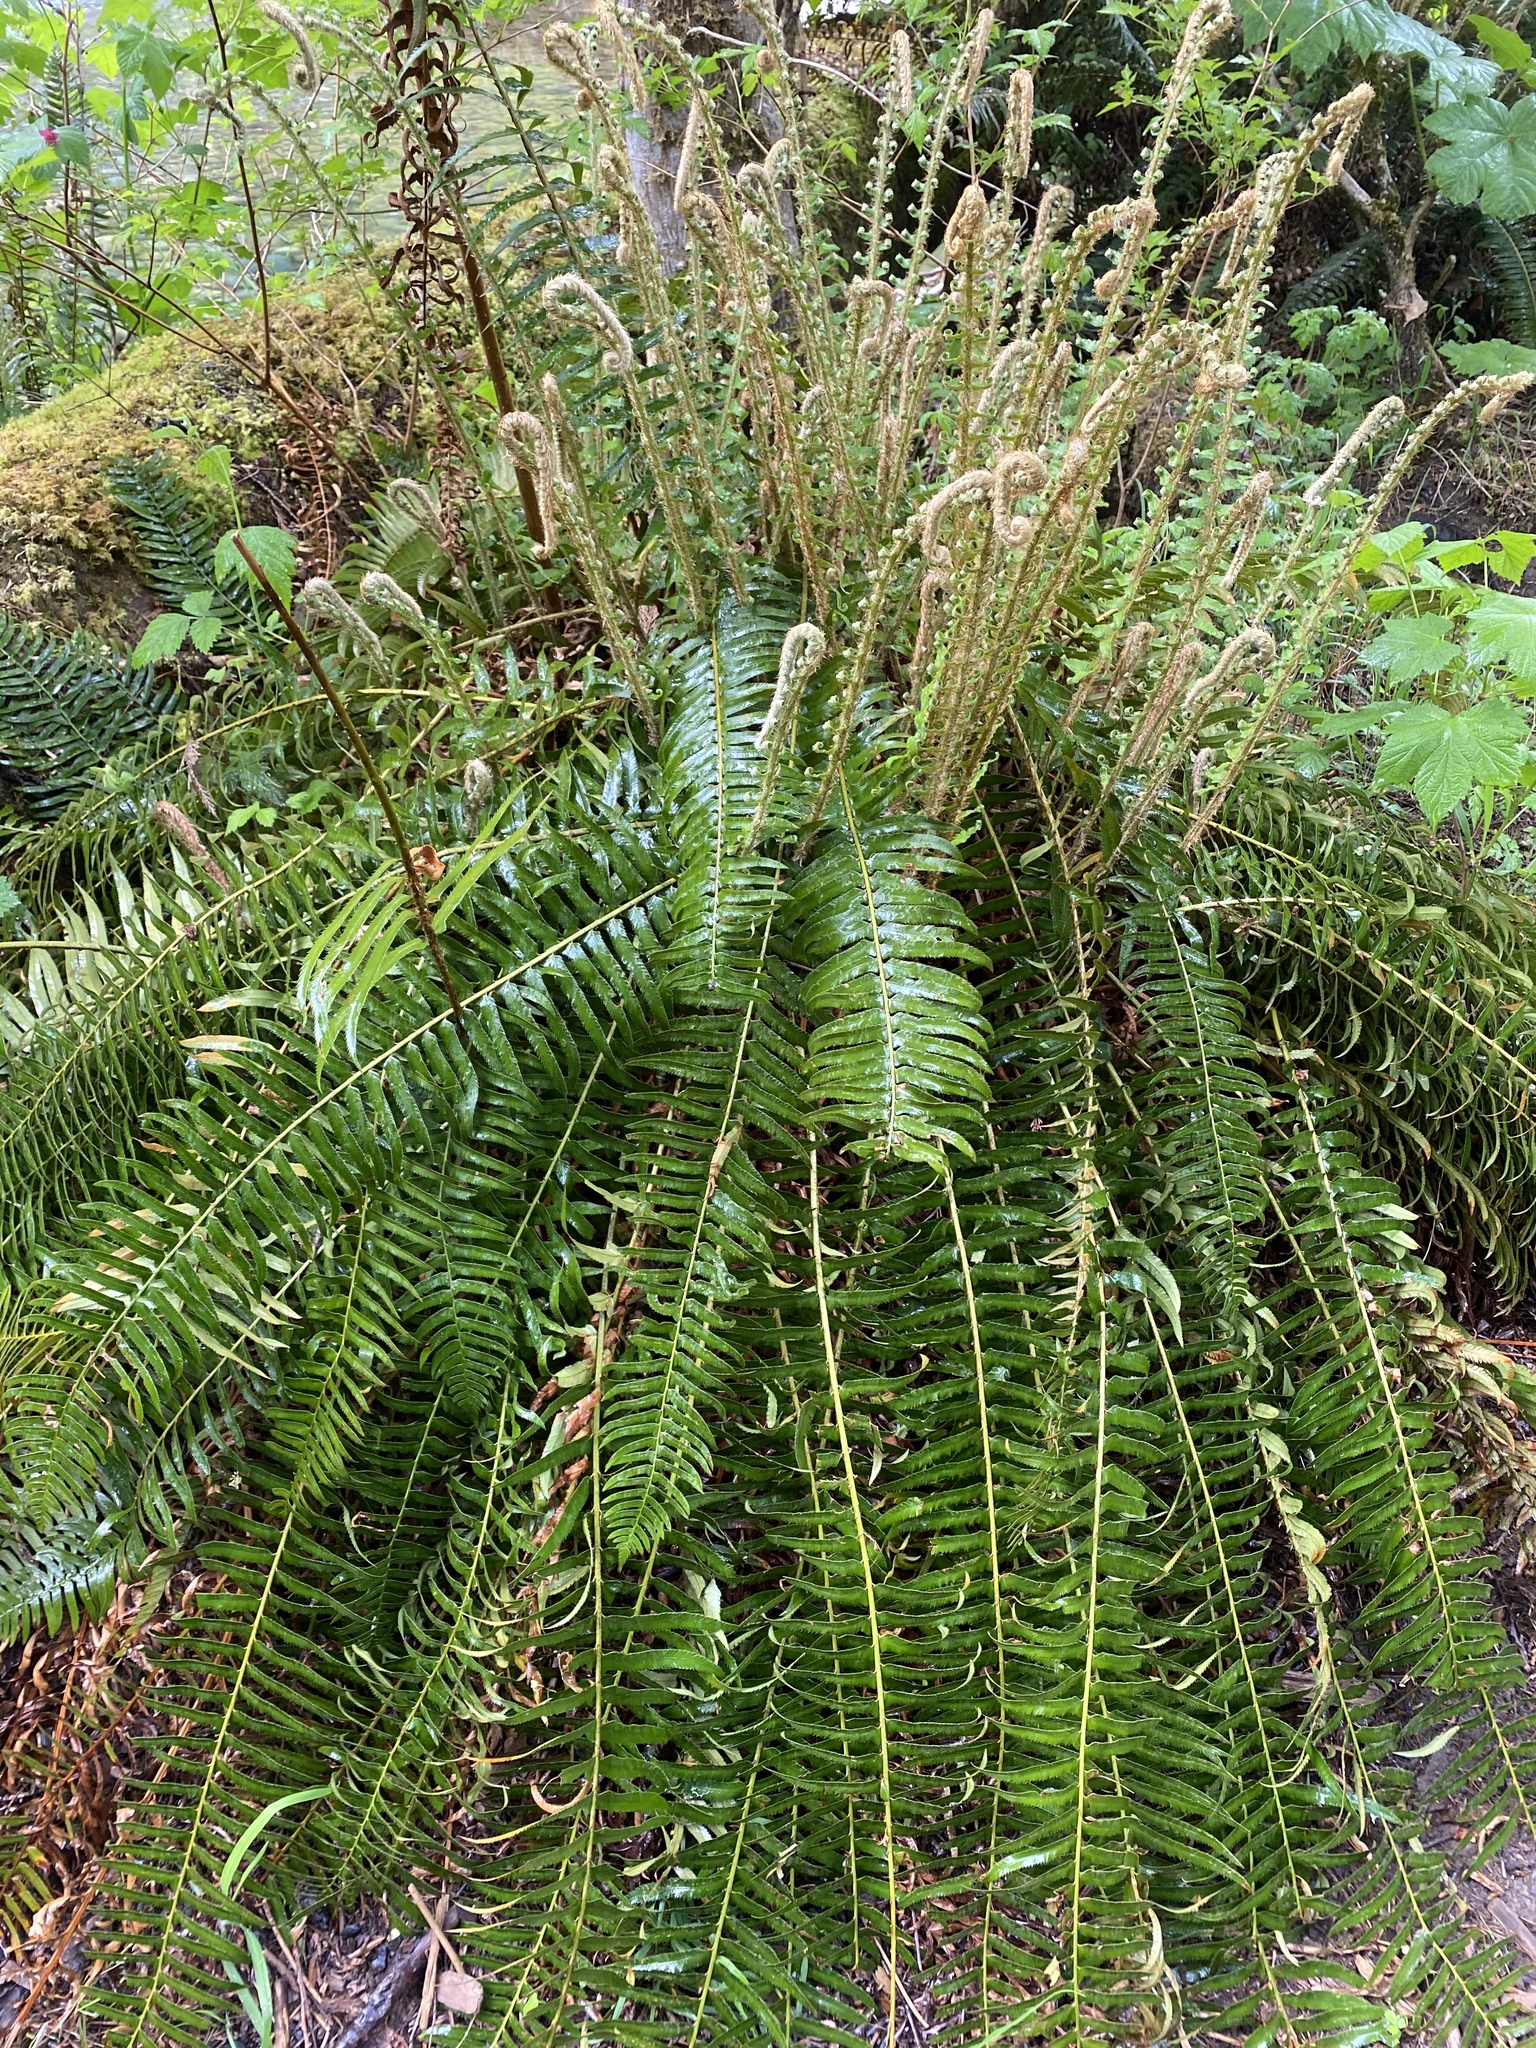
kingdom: Plantae
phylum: Tracheophyta
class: Polypodiopsida
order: Polypodiales
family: Dryopteridaceae
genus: Polystichum
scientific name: Polystichum munitum
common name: Western sword-fern
